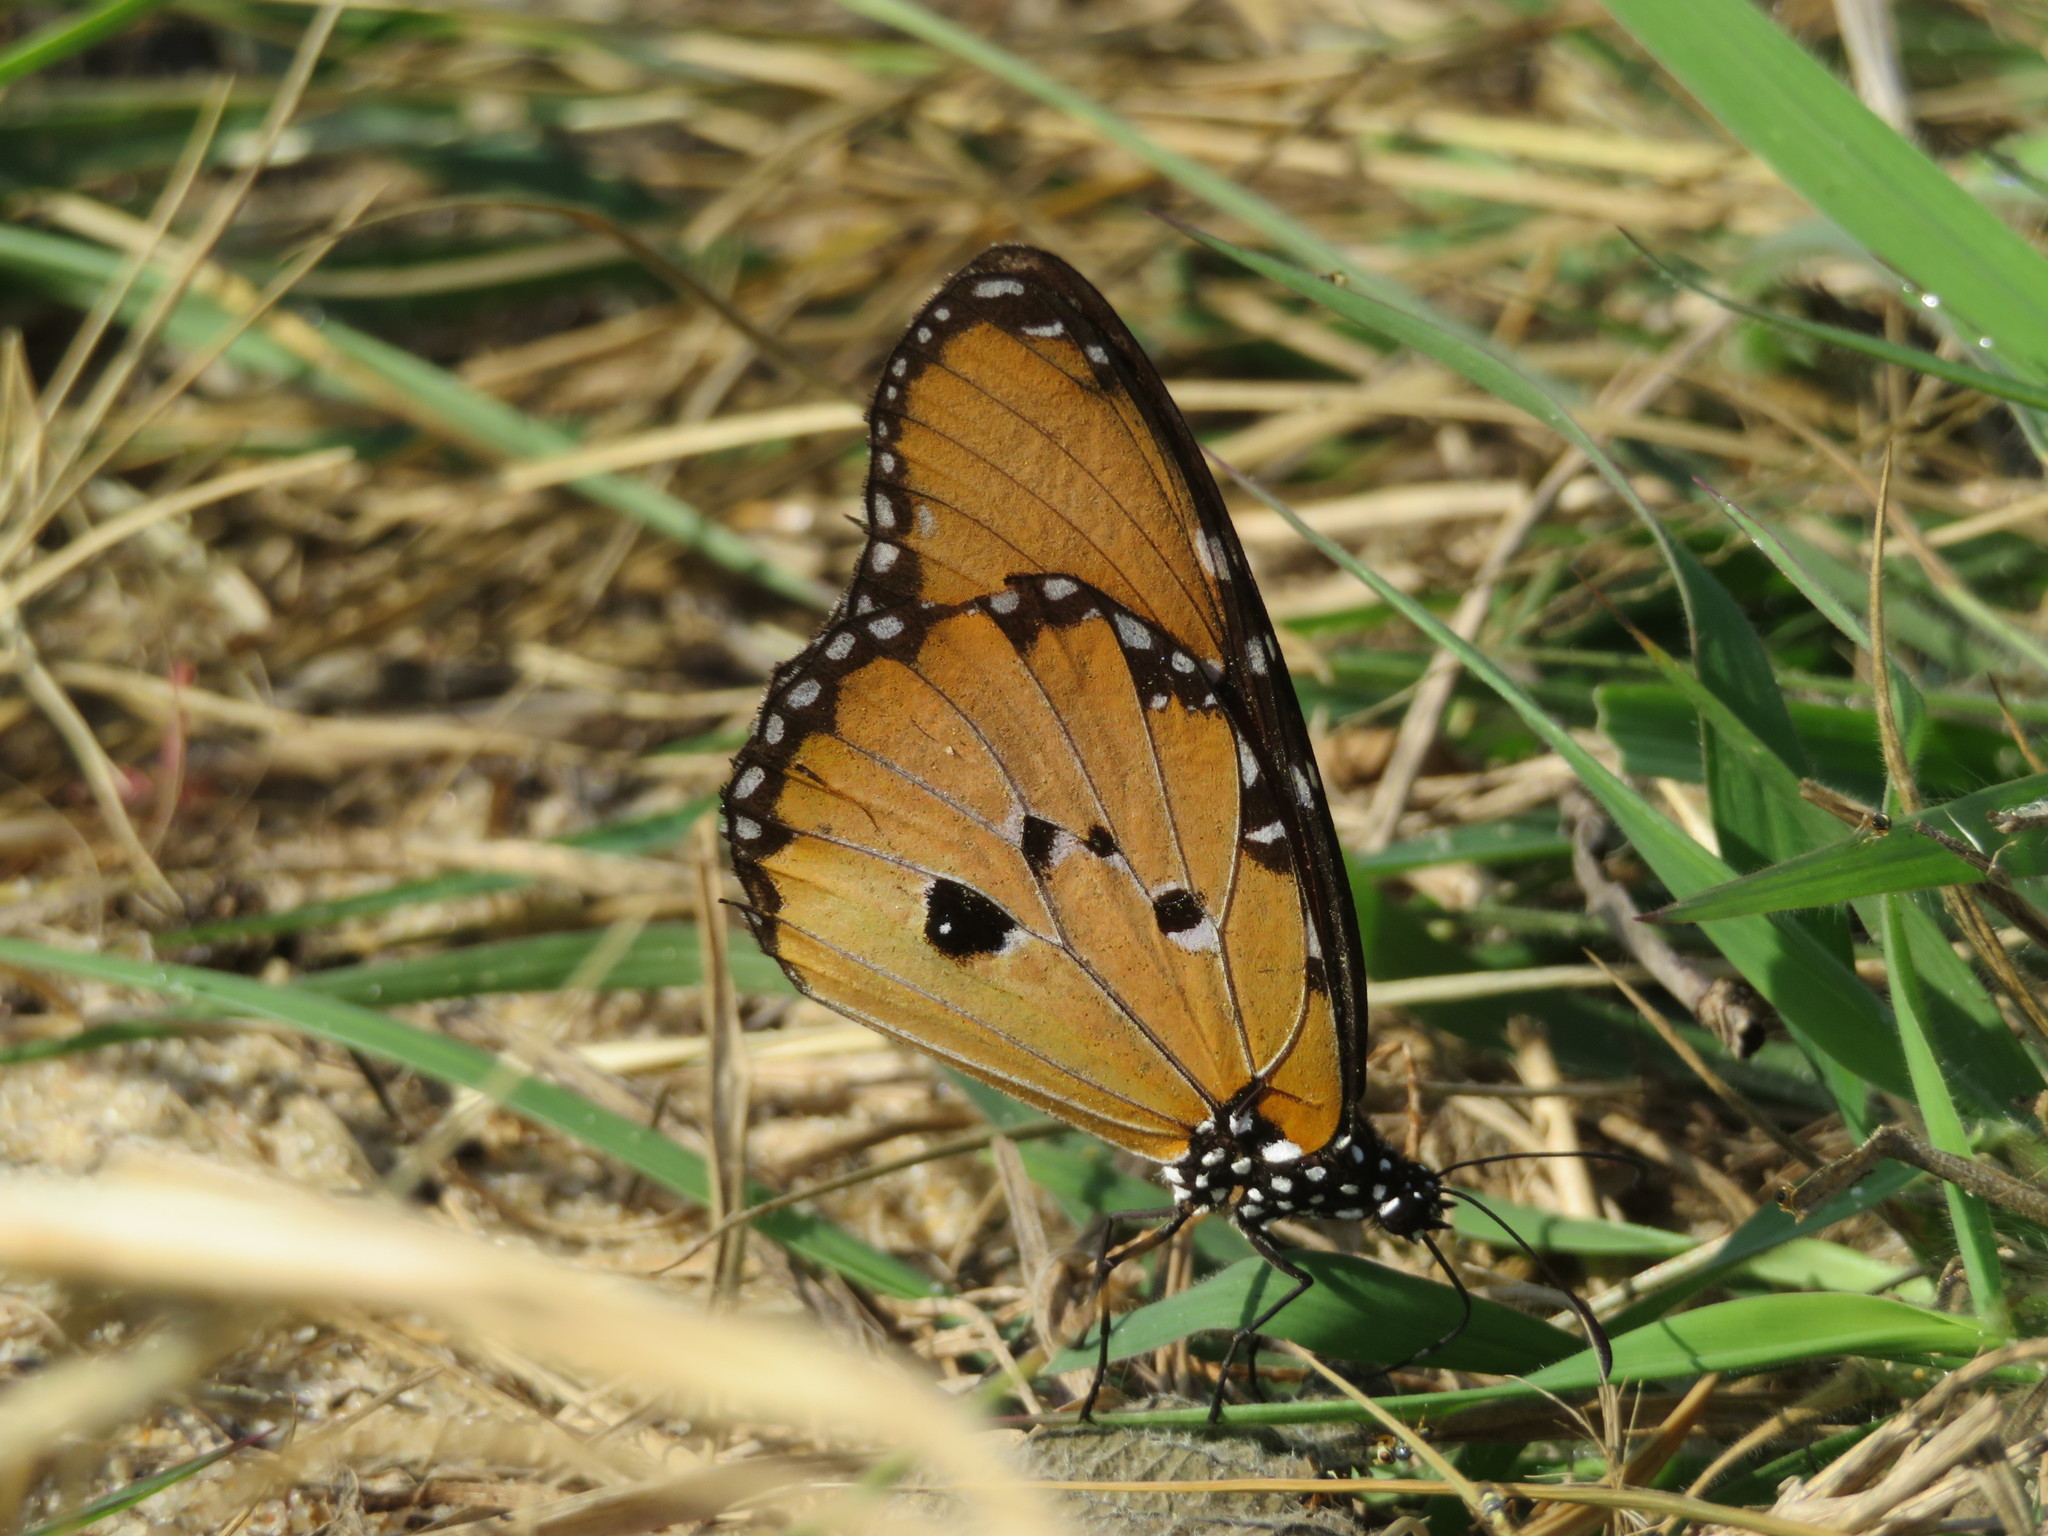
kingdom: Animalia
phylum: Arthropoda
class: Insecta
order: Lepidoptera
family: Nymphalidae
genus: Danaus
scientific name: Danaus chrysippus
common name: Plain tiger
